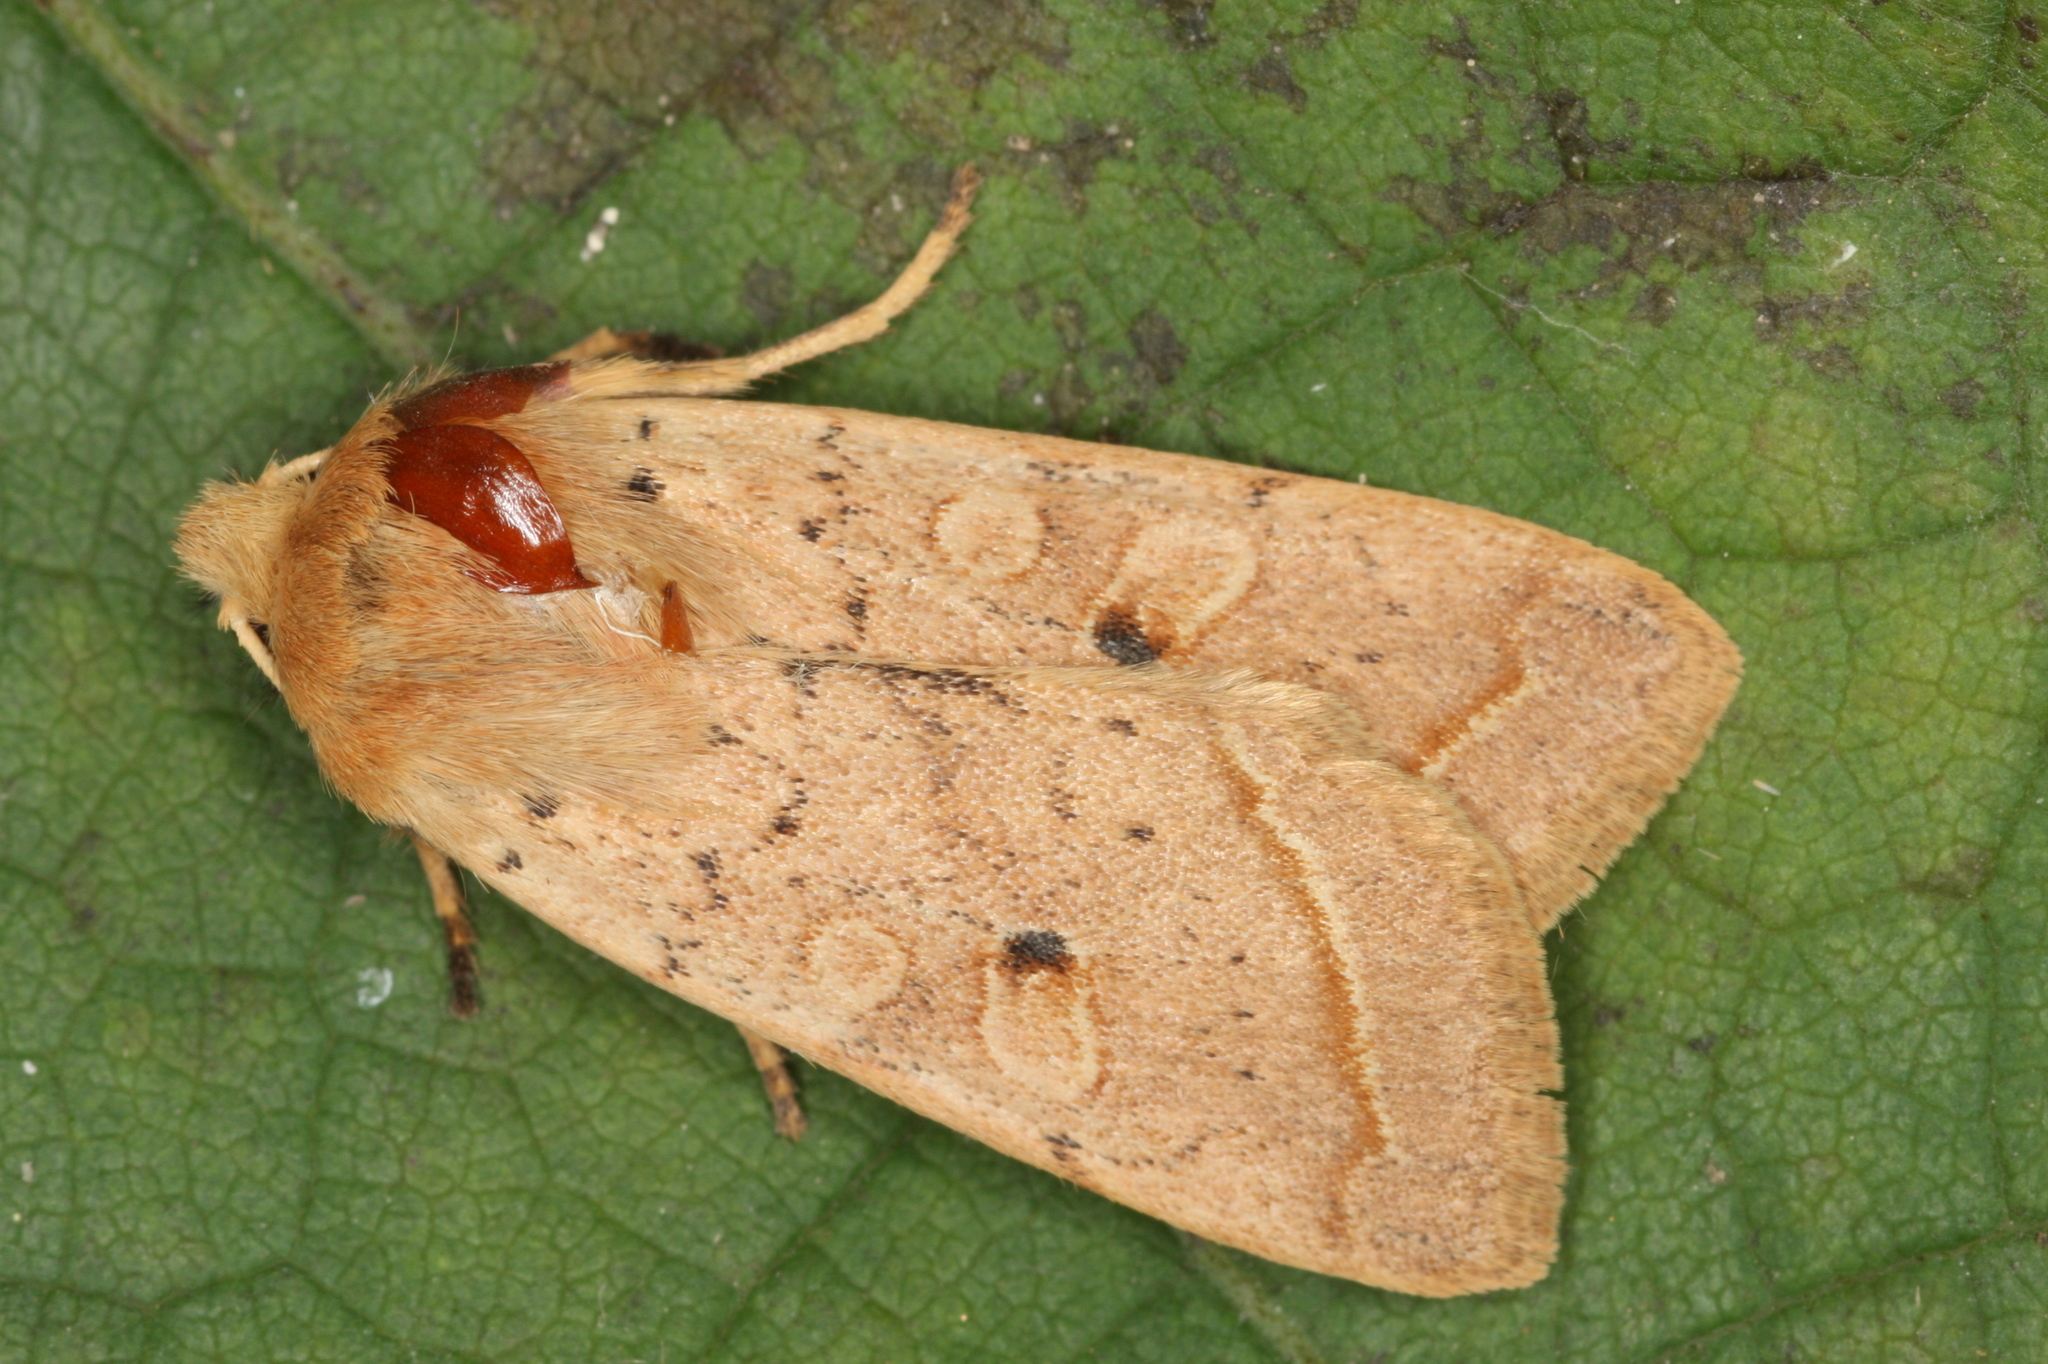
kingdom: Animalia
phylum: Arthropoda
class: Insecta
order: Lepidoptera
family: Noctuidae
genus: Agrochola
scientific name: Agrochola macilenta
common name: Yellow-line quaker
